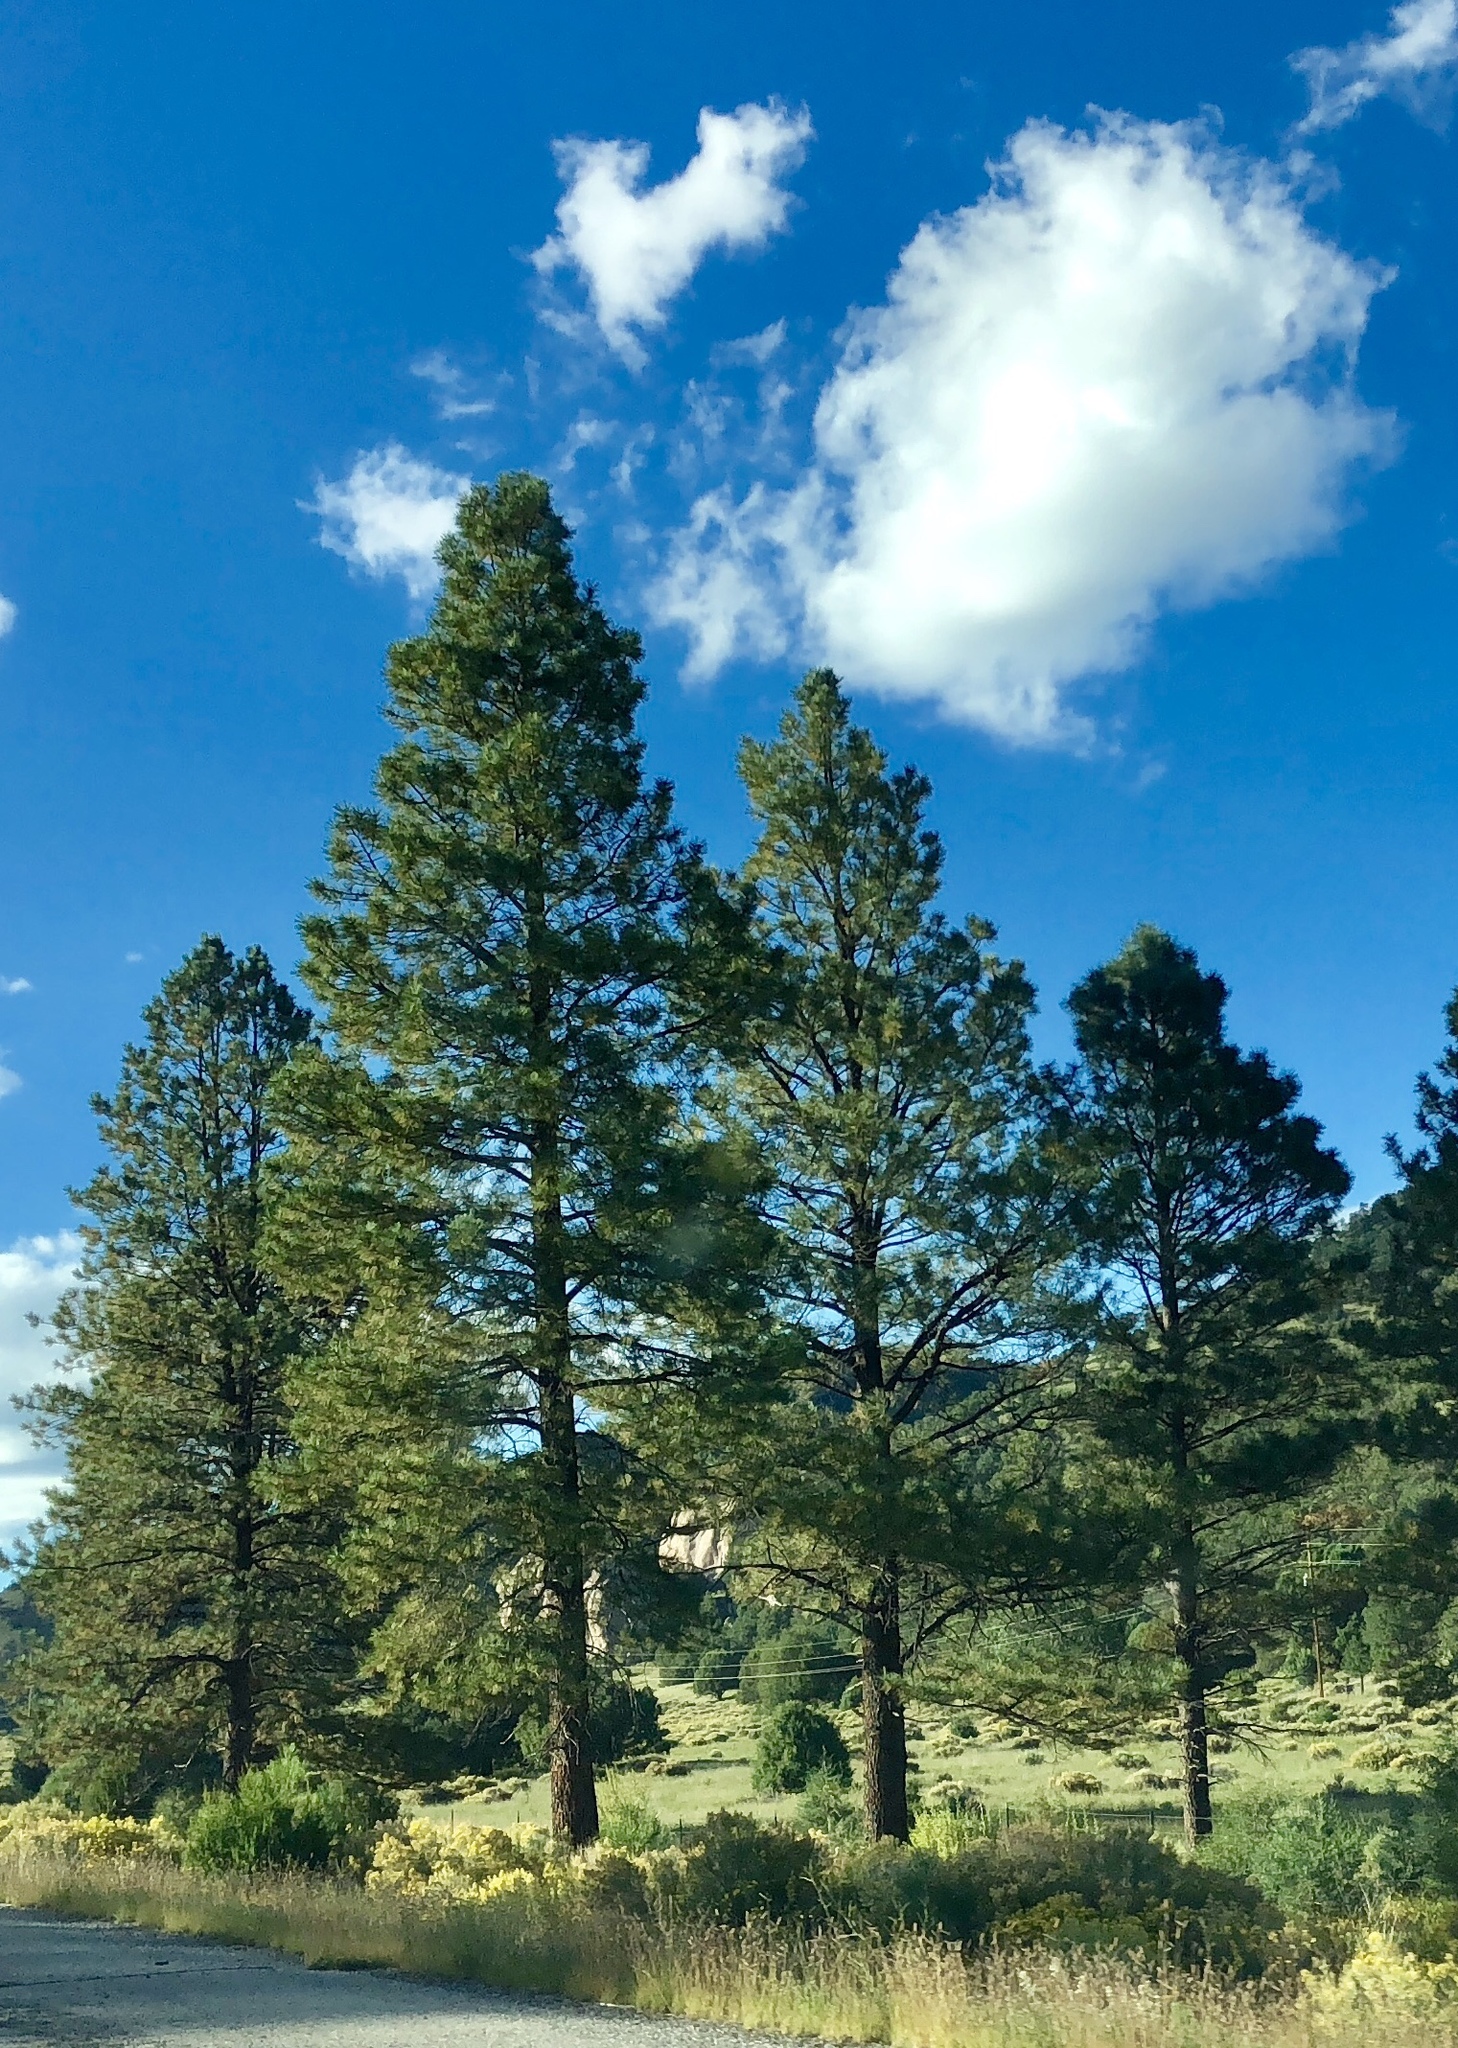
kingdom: Plantae
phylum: Tracheophyta
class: Pinopsida
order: Pinales
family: Pinaceae
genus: Pinus
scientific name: Pinus ponderosa
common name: Western yellow-pine
